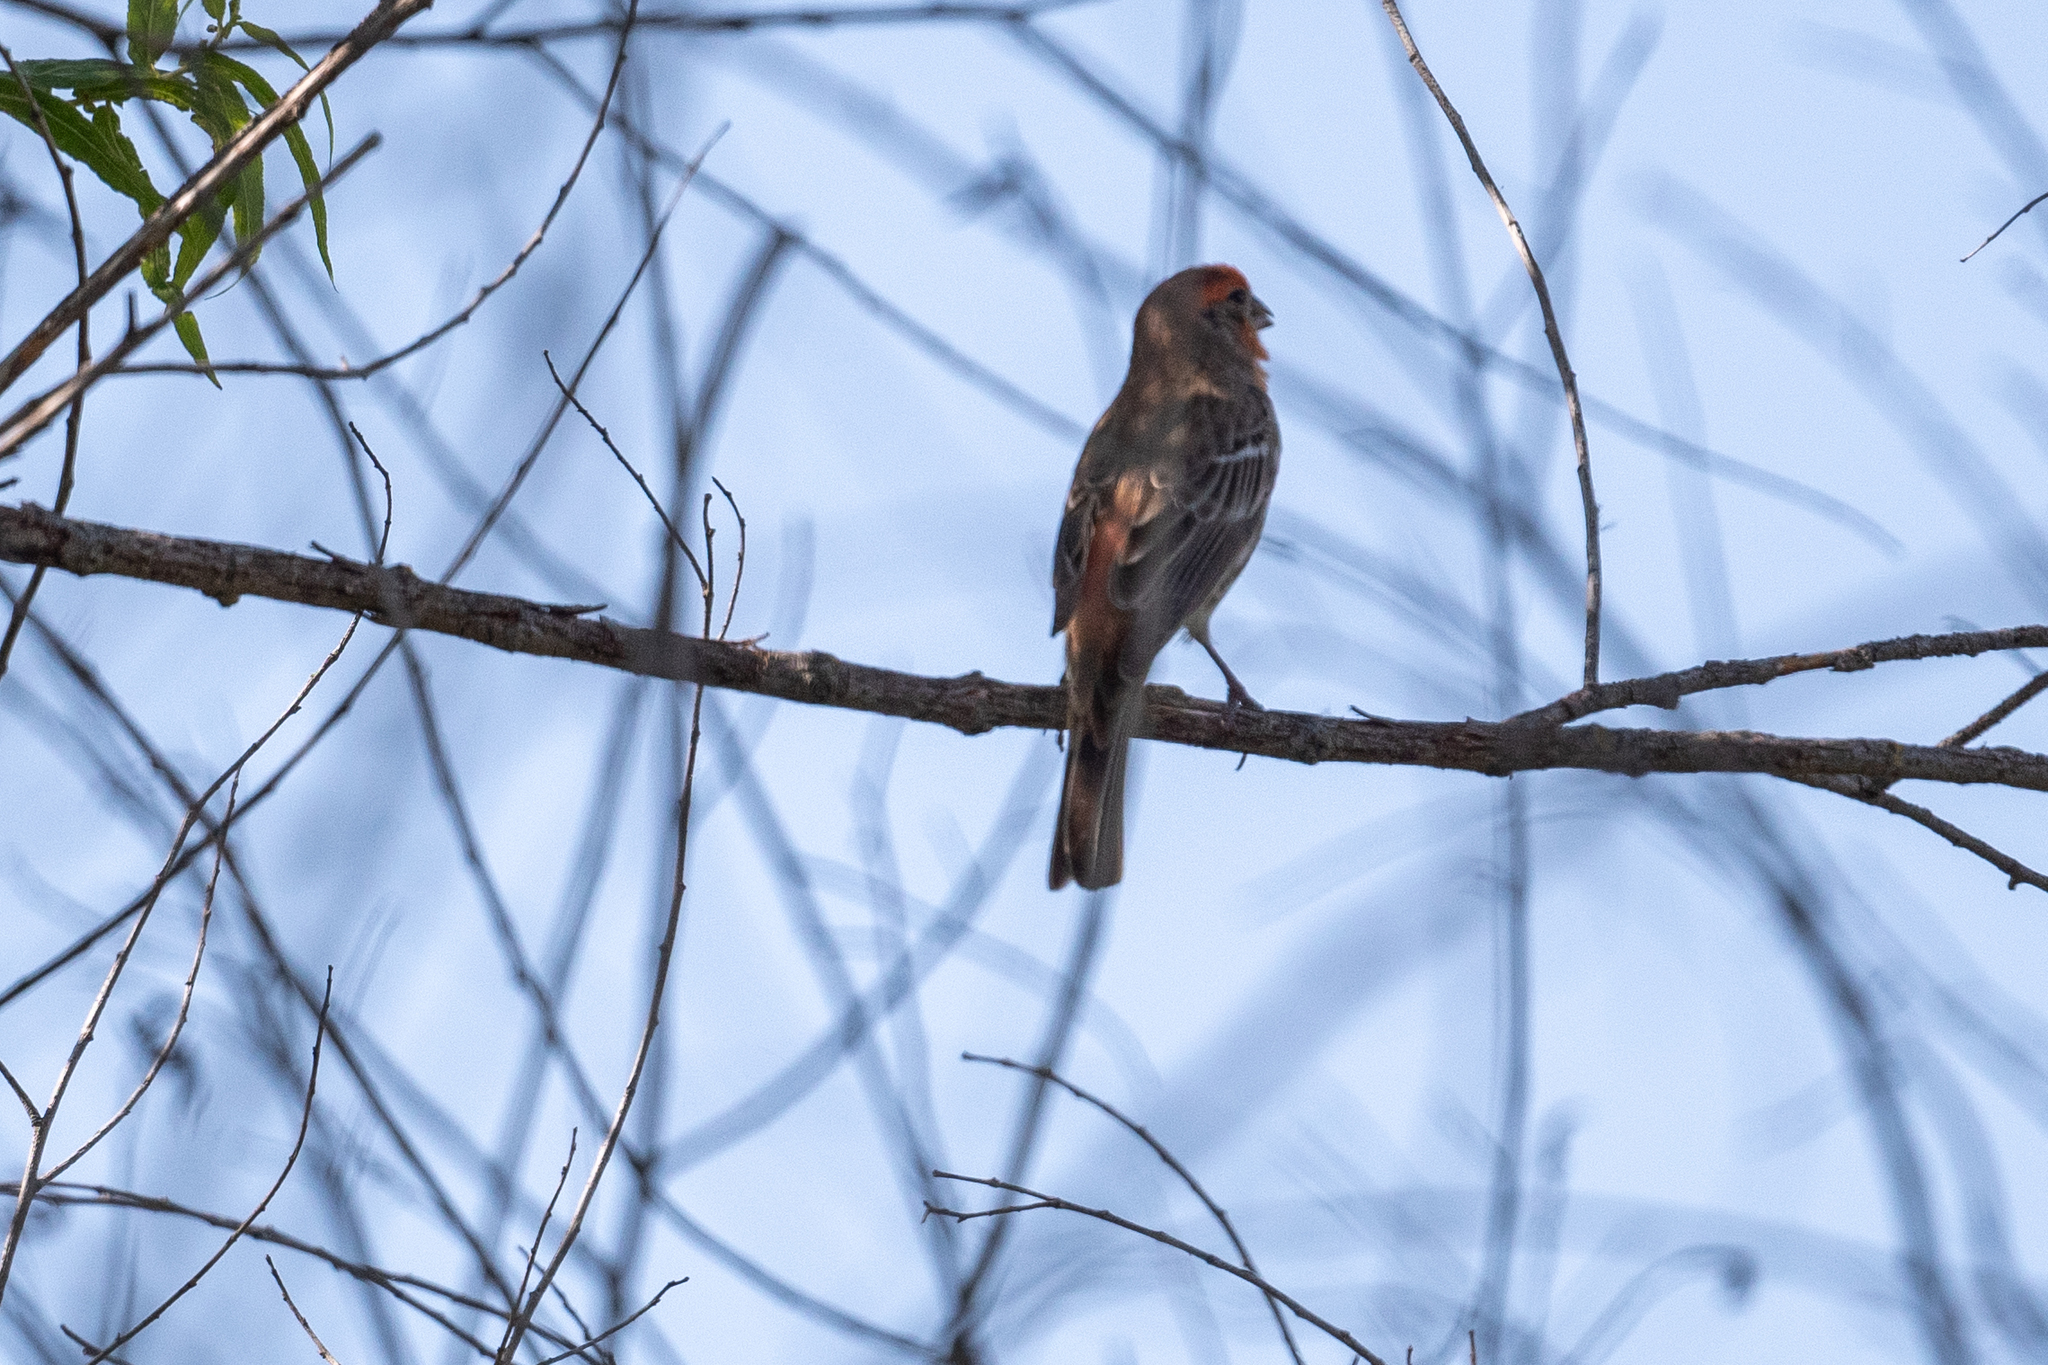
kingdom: Animalia
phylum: Chordata
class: Aves
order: Passeriformes
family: Fringillidae
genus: Haemorhous
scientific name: Haemorhous mexicanus
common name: House finch
